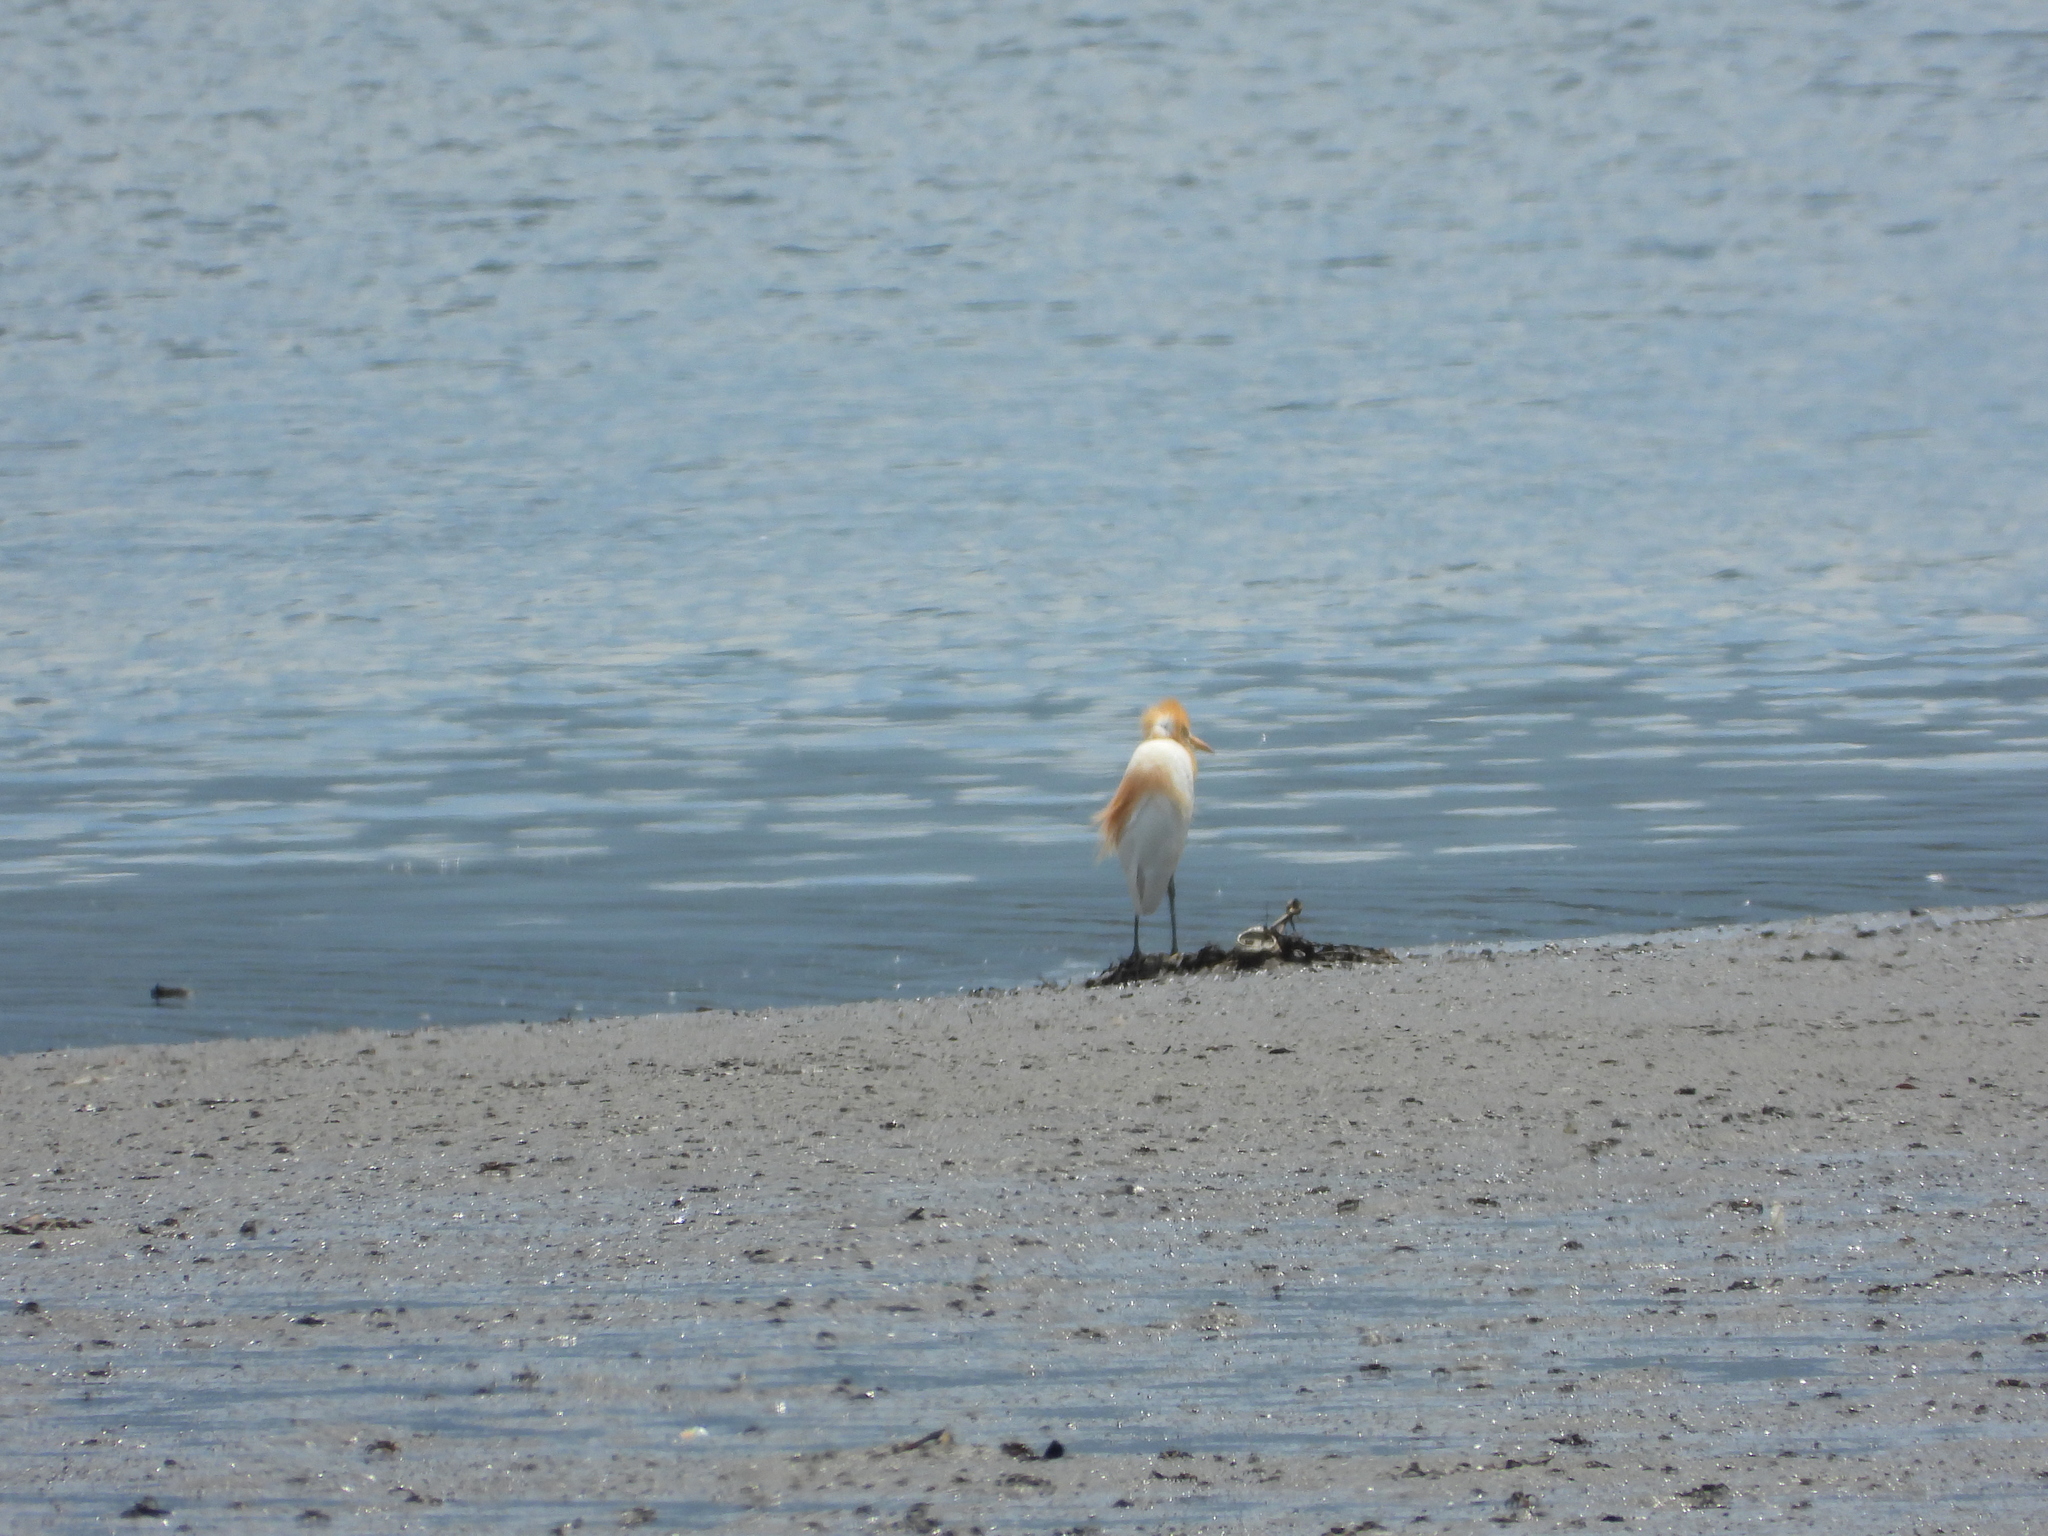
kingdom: Animalia
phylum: Chordata
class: Aves
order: Pelecaniformes
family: Ardeidae
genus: Bubulcus
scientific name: Bubulcus coromandus
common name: Eastern cattle egret
